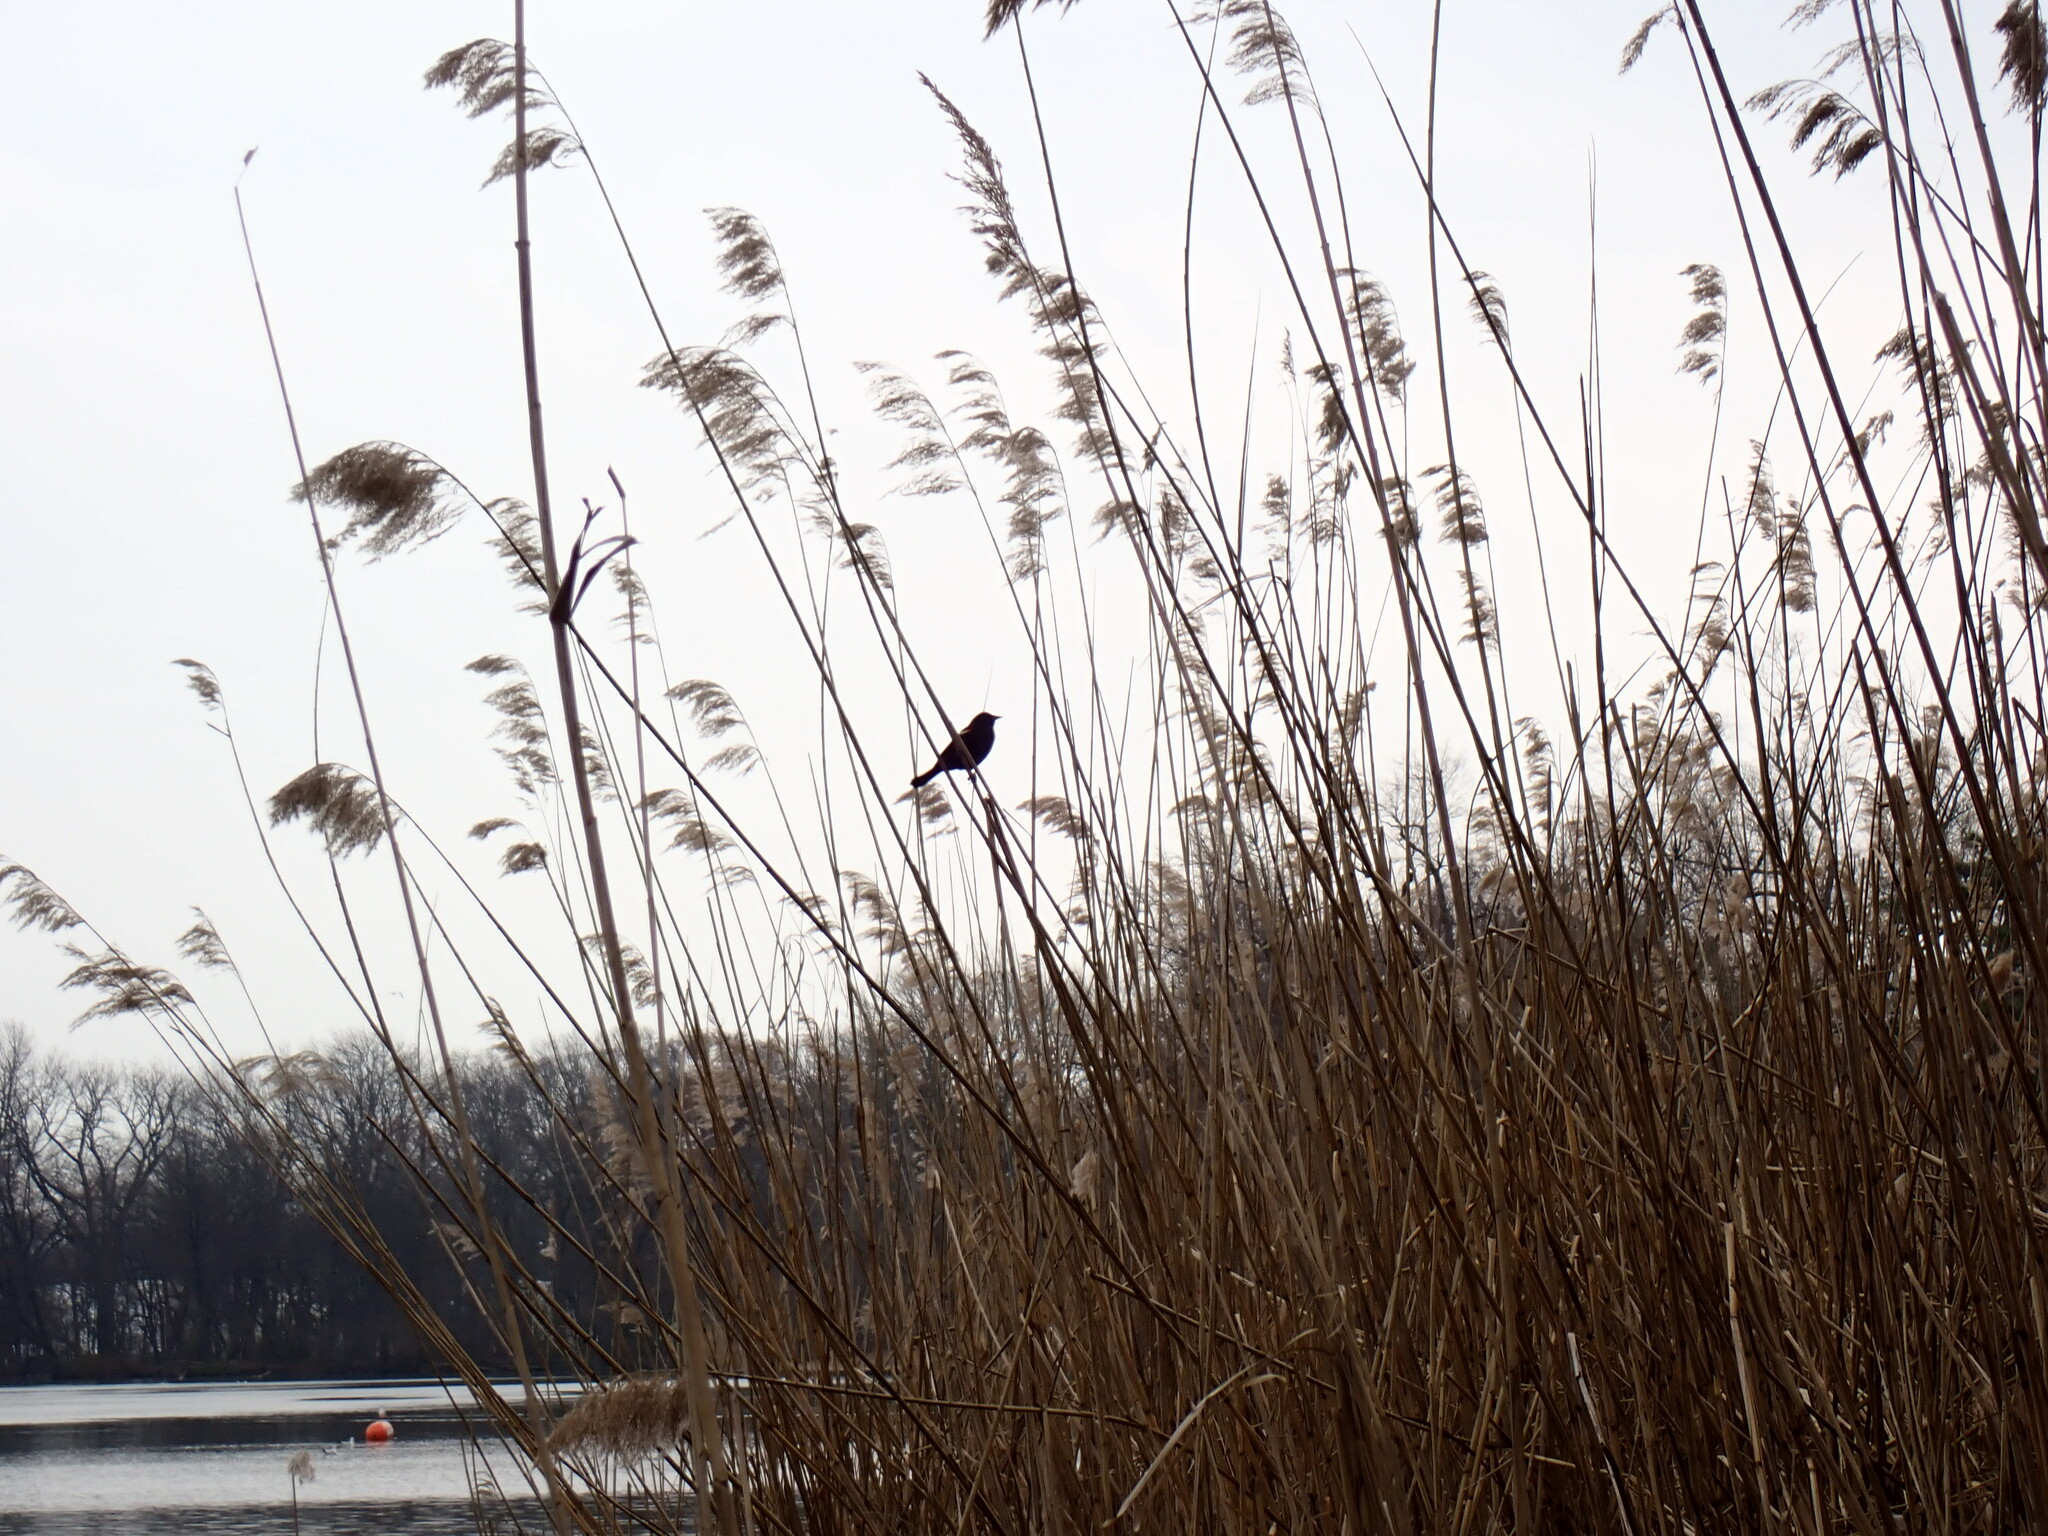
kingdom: Animalia
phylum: Chordata
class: Aves
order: Passeriformes
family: Icteridae
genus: Agelaius
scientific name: Agelaius phoeniceus
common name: Red-winged blackbird
